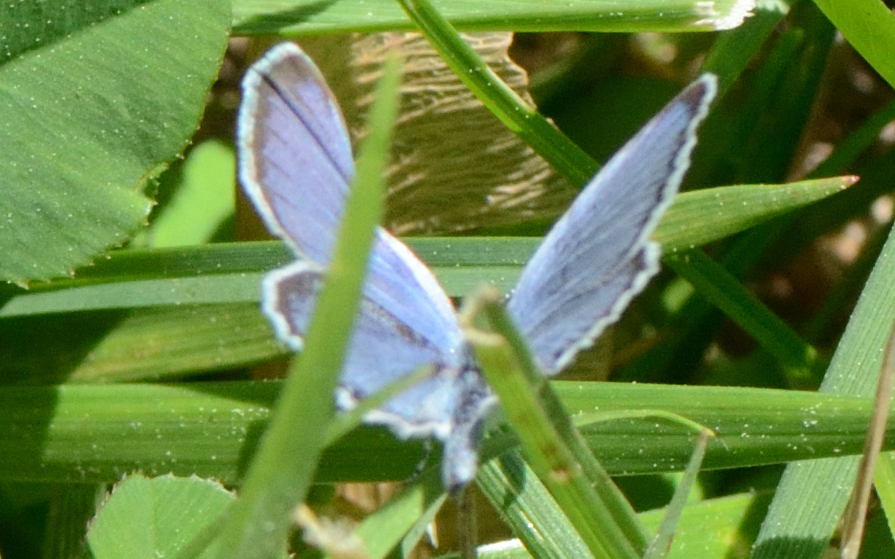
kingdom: Animalia
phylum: Arthropoda
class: Insecta
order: Lepidoptera
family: Lycaenidae
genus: Elkalyce
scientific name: Elkalyce comyntas
